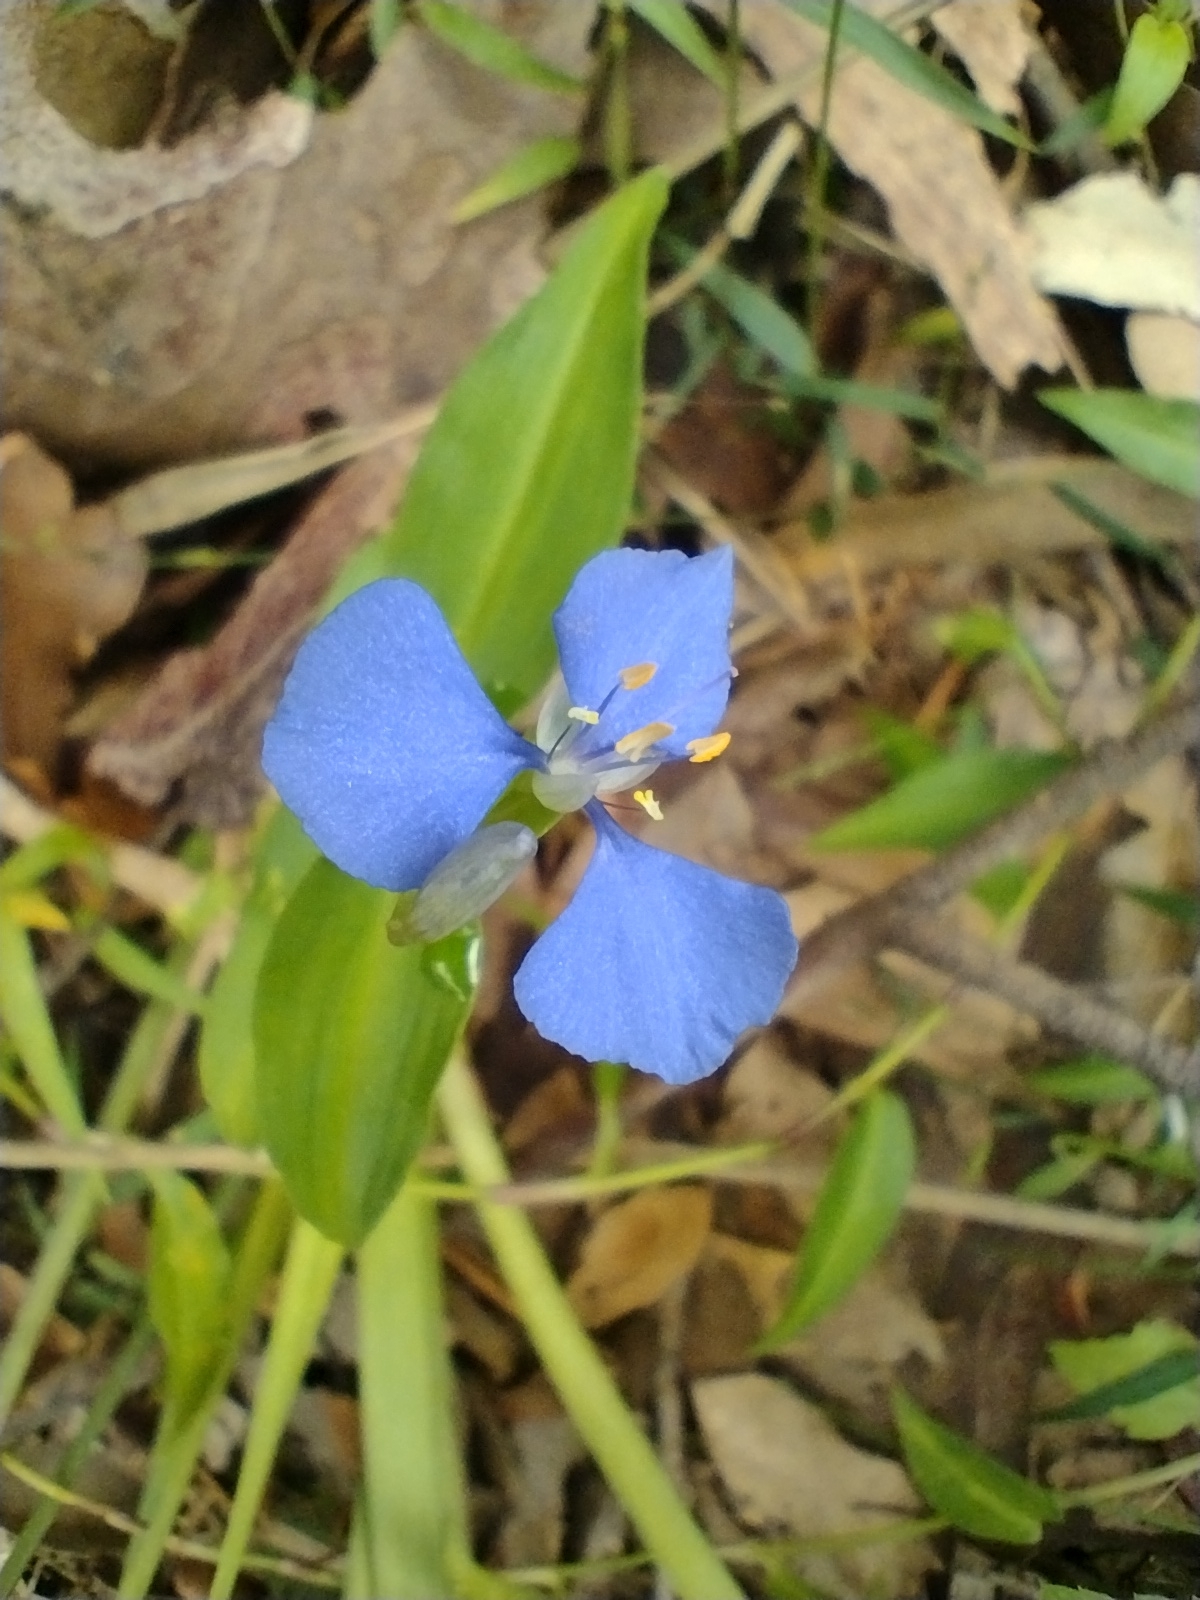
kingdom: Plantae
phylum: Tracheophyta
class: Liliopsida
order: Commelinales
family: Commelinaceae
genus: Commelina
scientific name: Commelina cyanea
